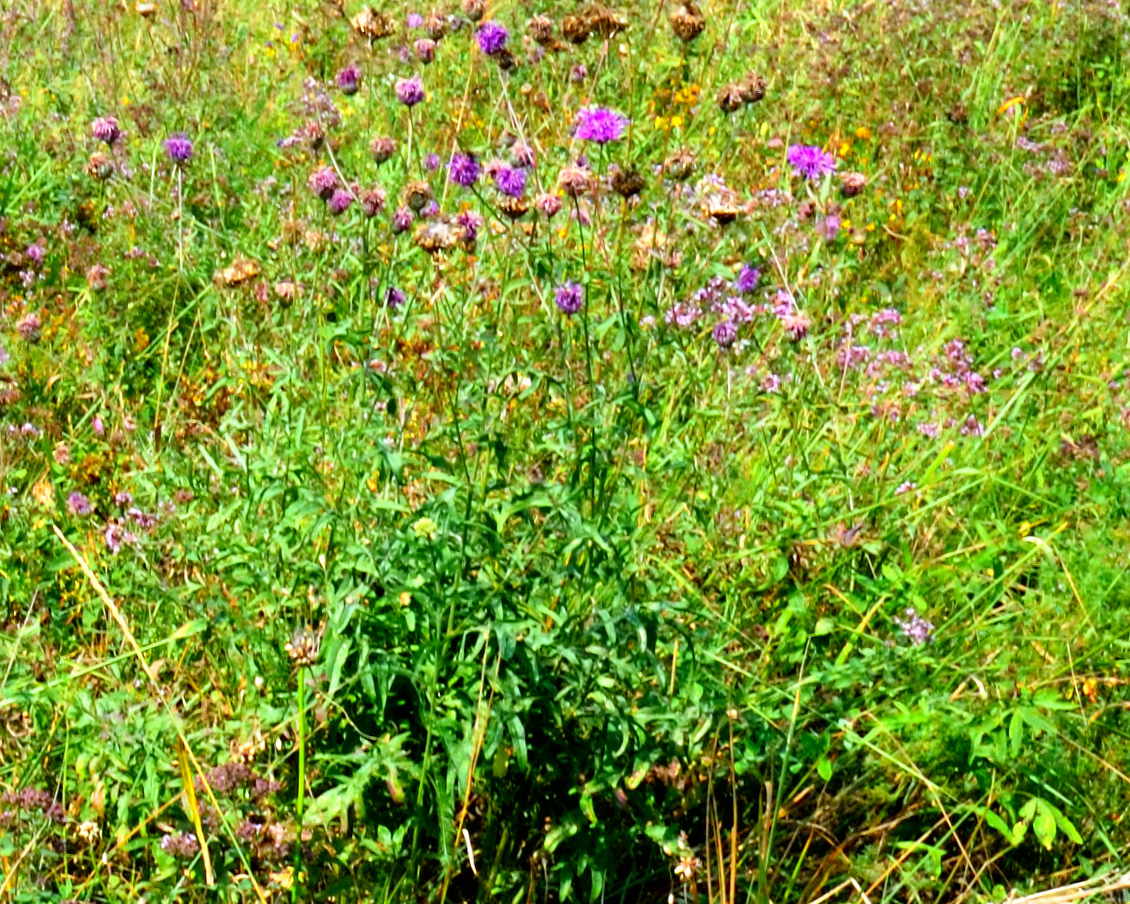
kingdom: Plantae
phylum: Tracheophyta
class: Magnoliopsida
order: Asterales
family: Asteraceae
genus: Centaurea
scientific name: Centaurea scabiosa
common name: Greater knapweed
